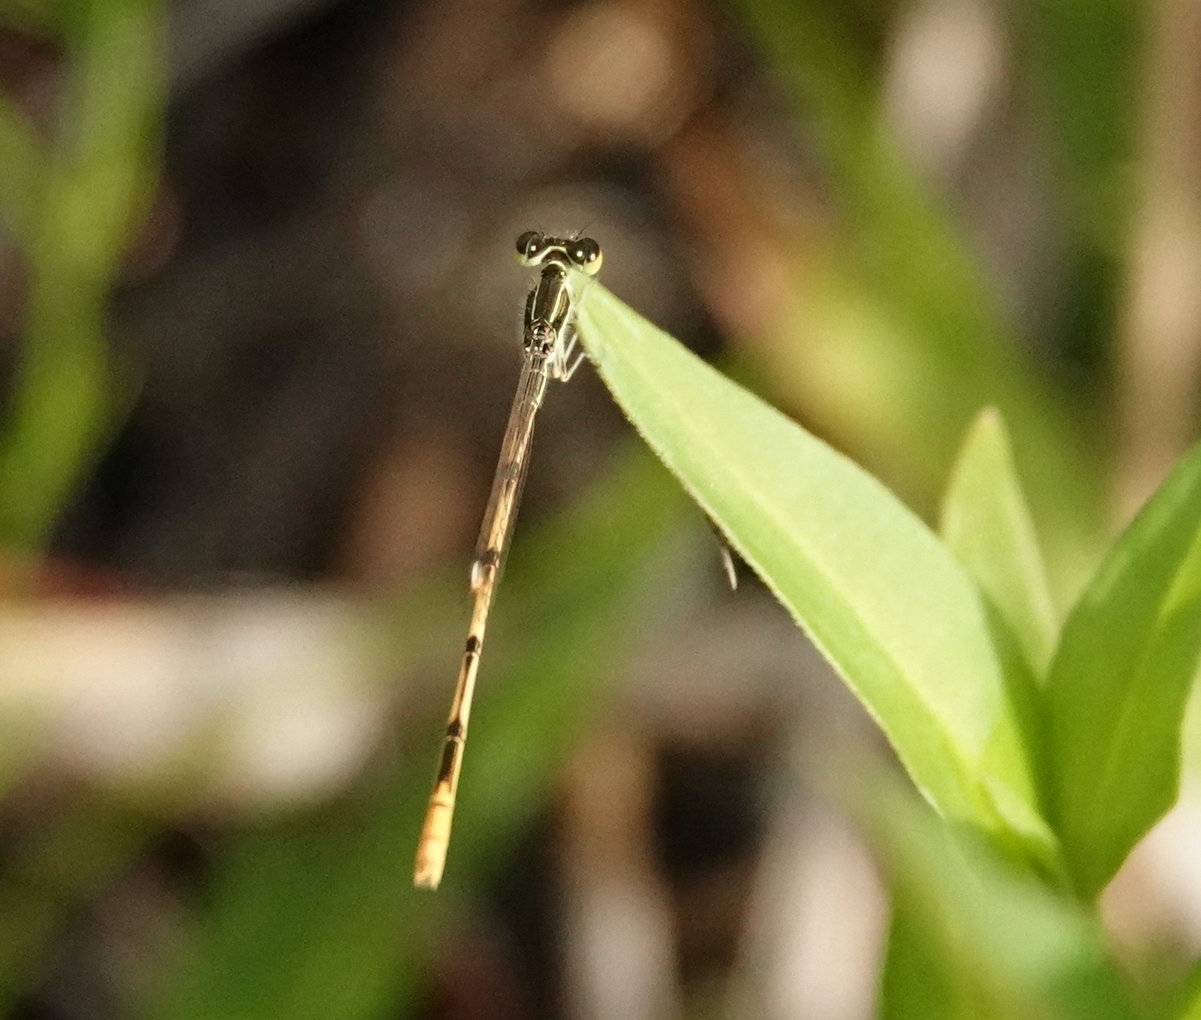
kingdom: Animalia
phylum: Arthropoda
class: Insecta
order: Odonata
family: Coenagrionidae
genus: Ischnura
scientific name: Ischnura hastata
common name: Citrine forktail
